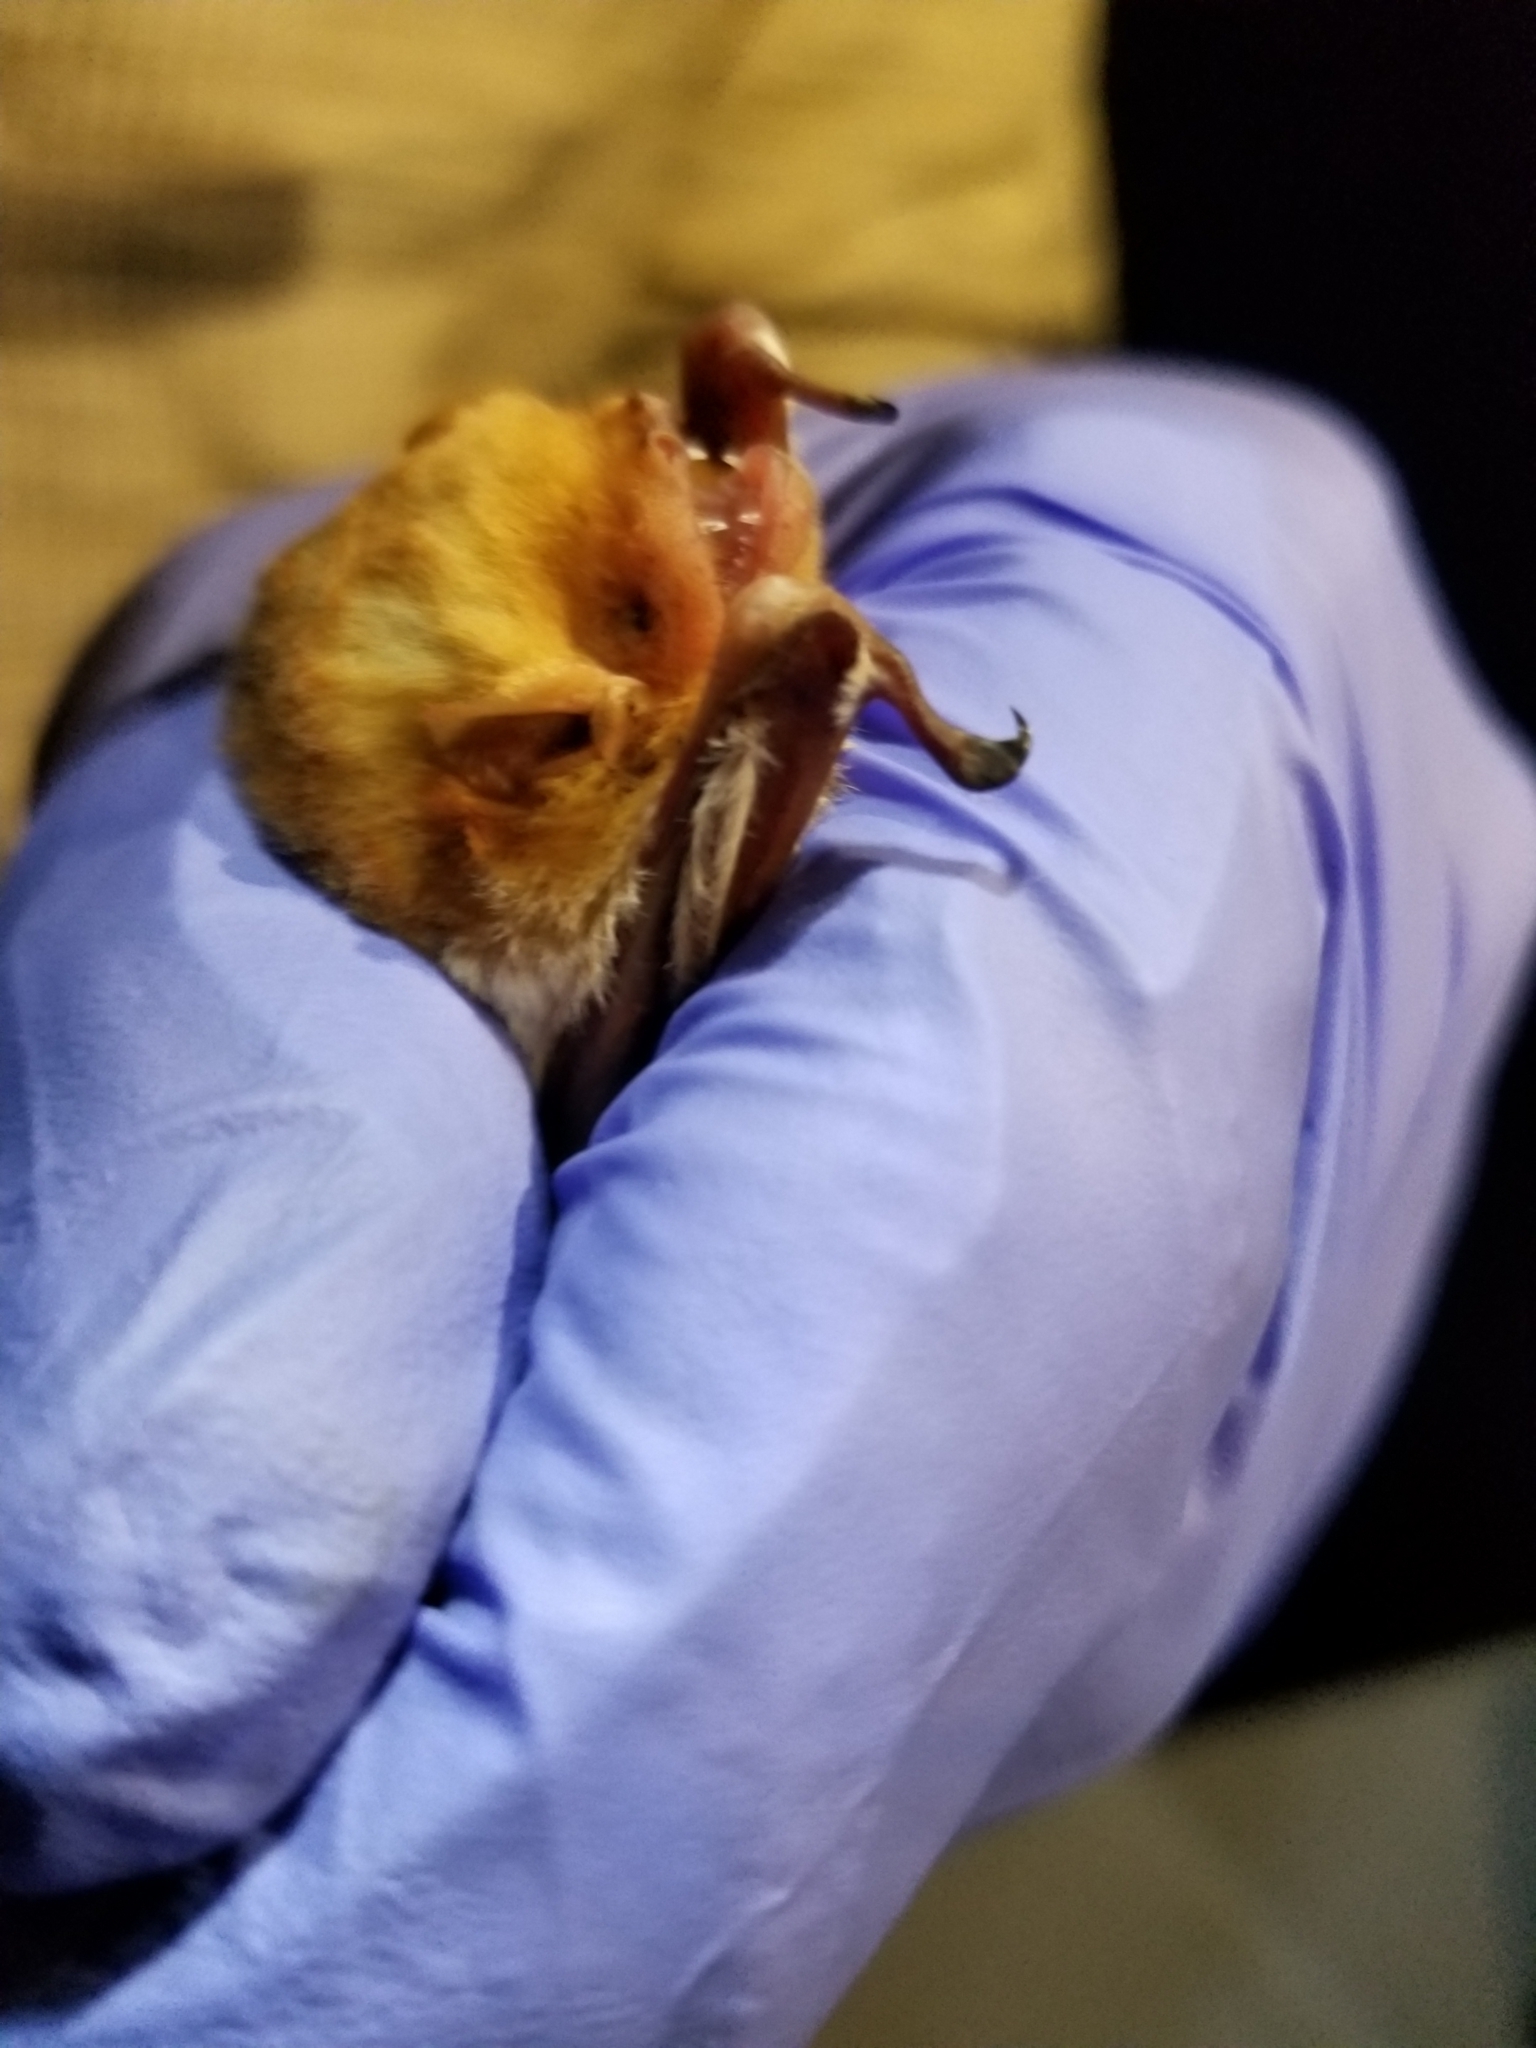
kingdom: Animalia
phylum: Chordata
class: Mammalia
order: Chiroptera
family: Vespertilionidae
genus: Lasiurus
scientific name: Lasiurus borealis
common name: Eastern red bat
